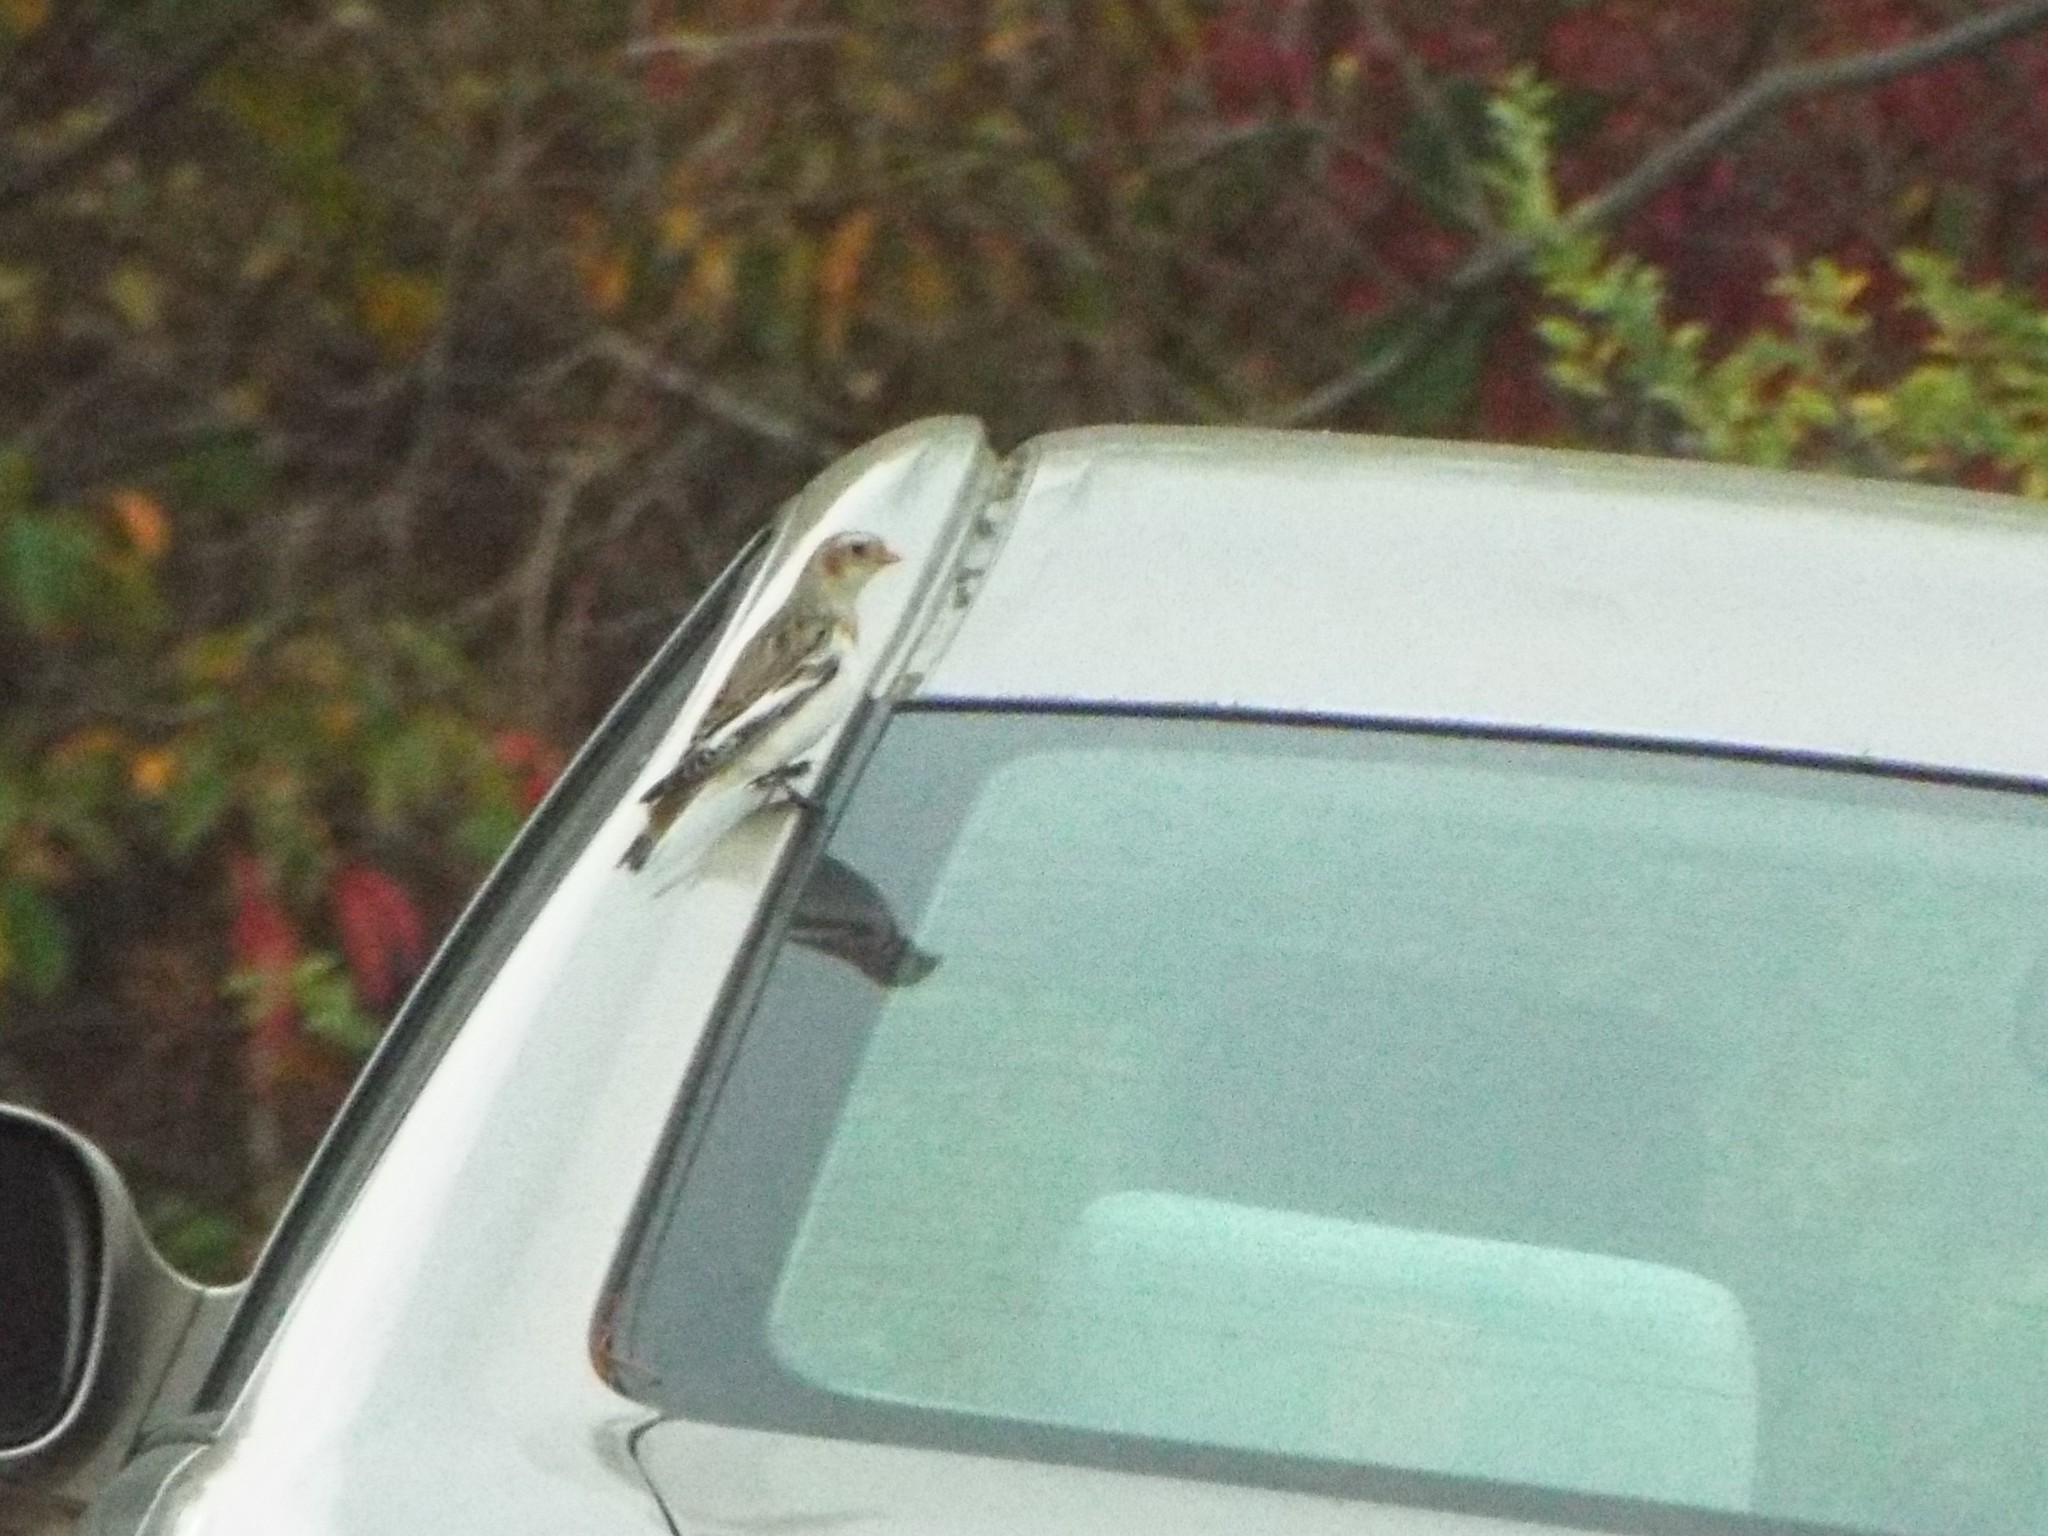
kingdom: Animalia
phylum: Chordata
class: Aves
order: Passeriformes
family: Calcariidae
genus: Plectrophenax
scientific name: Plectrophenax nivalis
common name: Snow bunting
